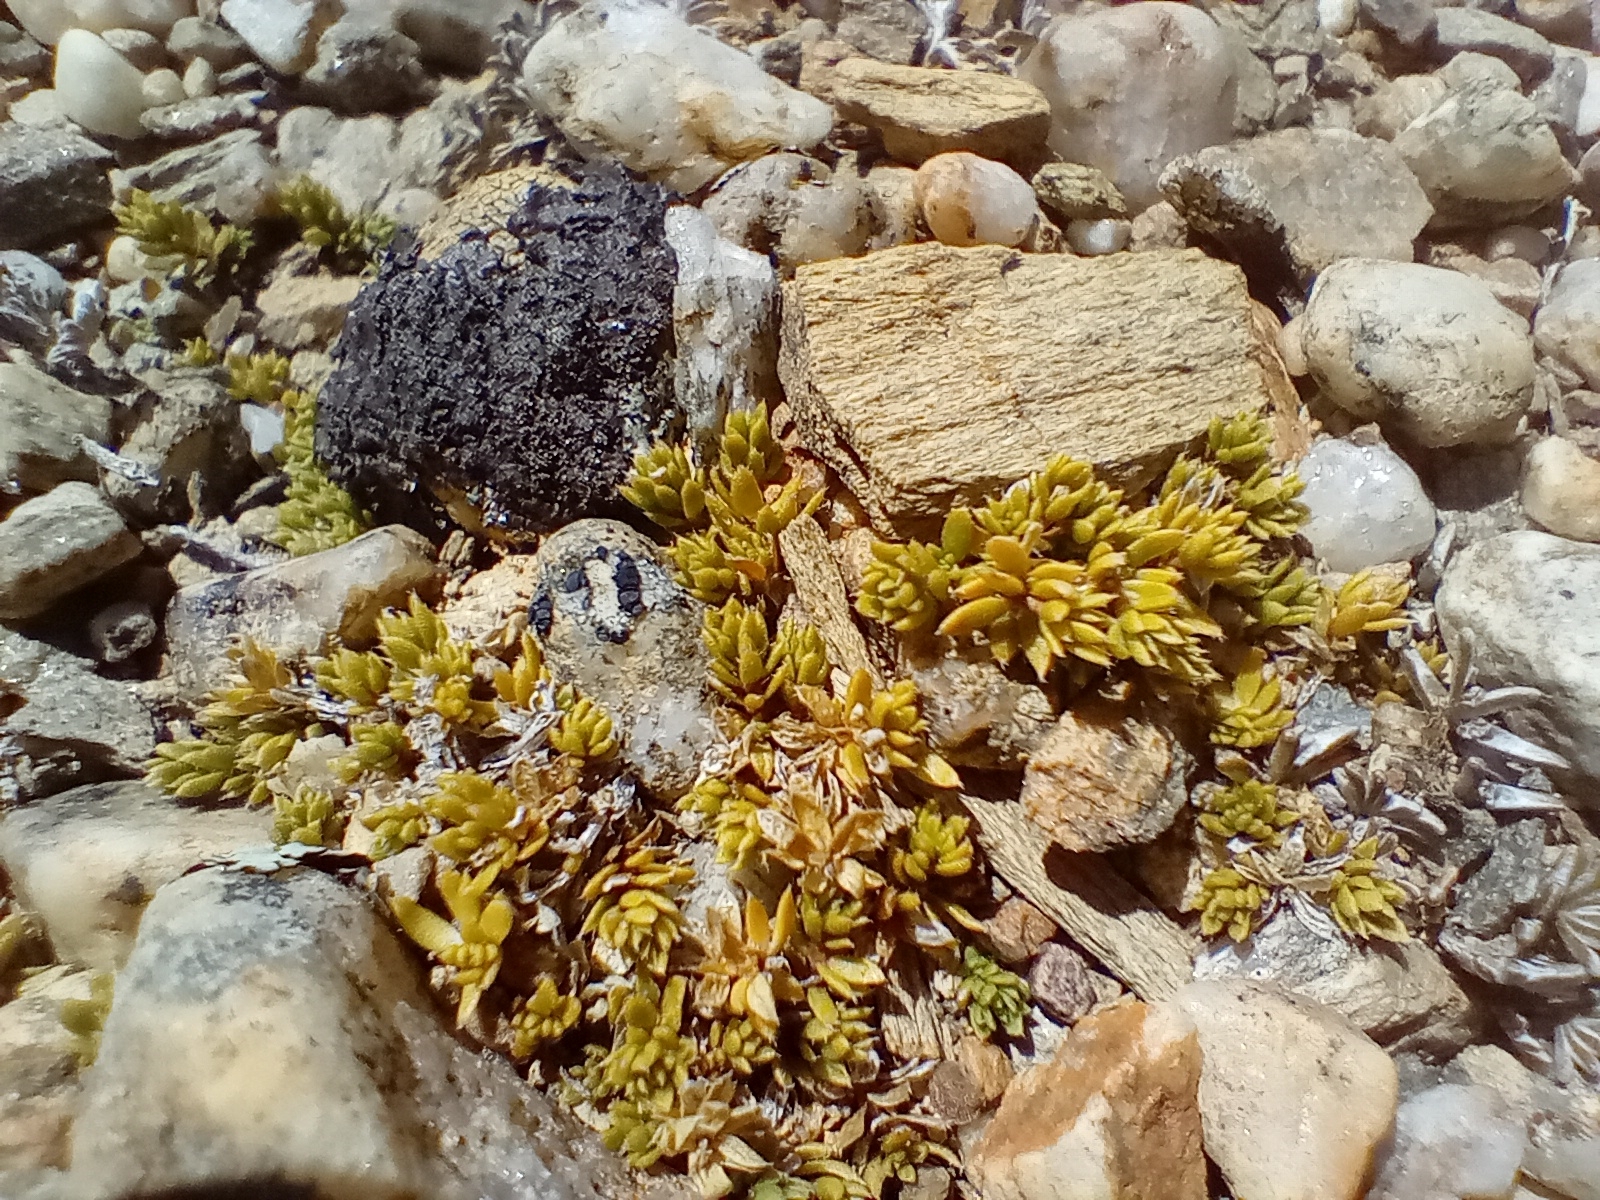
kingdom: Plantae
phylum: Tracheophyta
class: Magnoliopsida
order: Gentianales
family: Rubiaceae
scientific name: Rubiaceae
